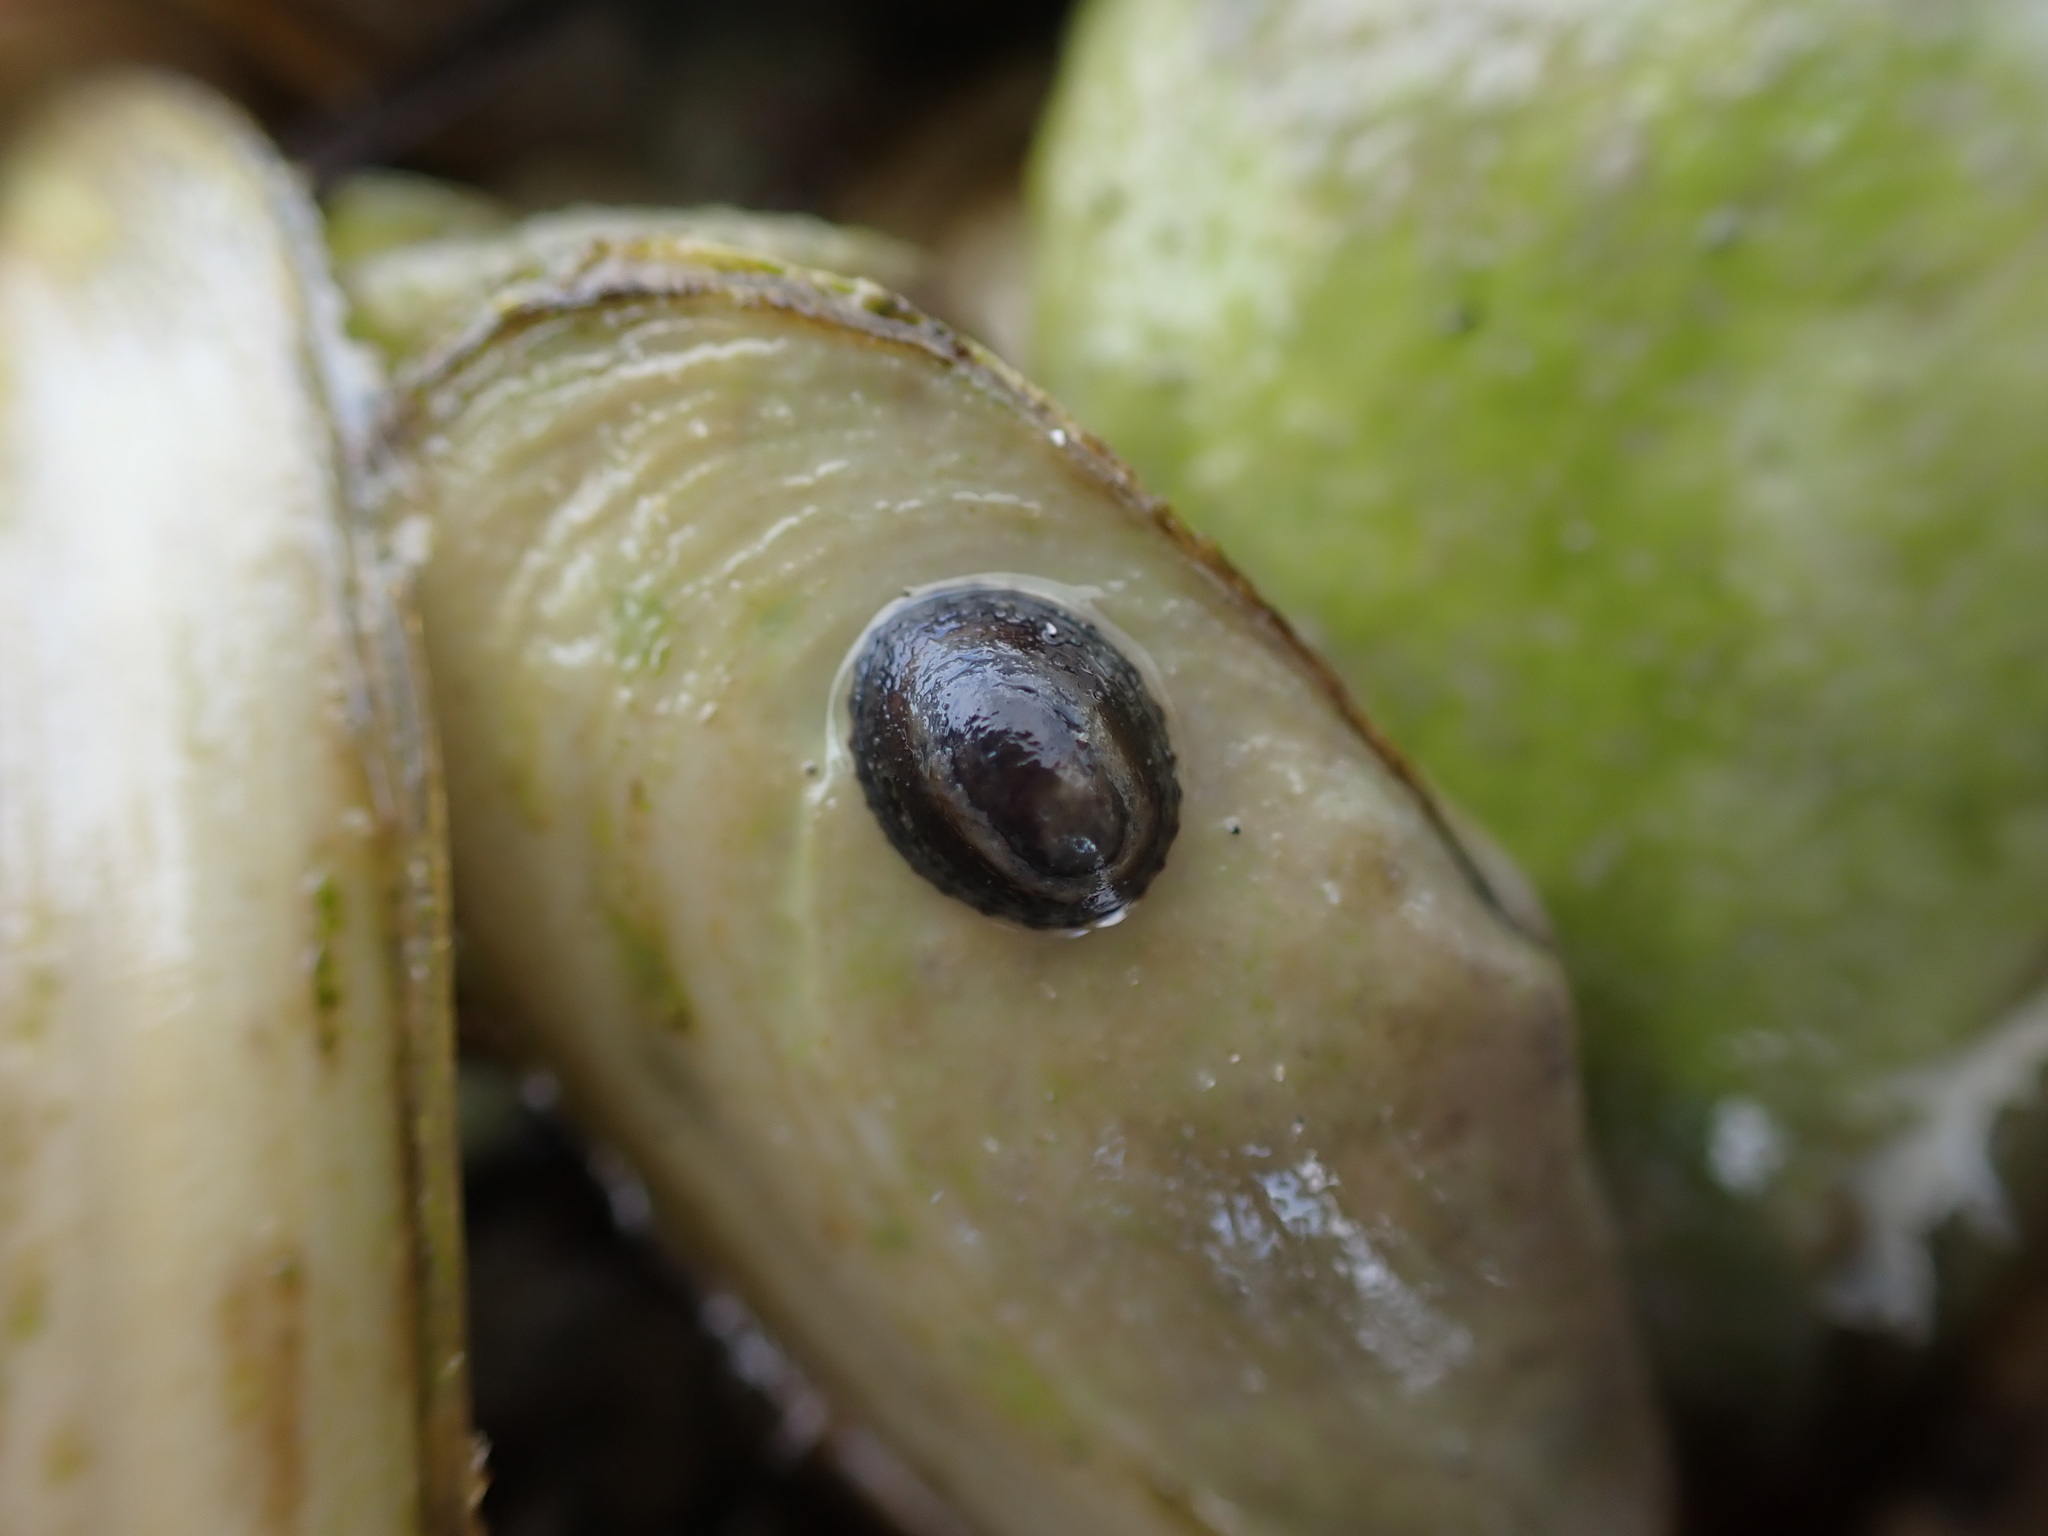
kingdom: Animalia
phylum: Mollusca
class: Gastropoda
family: Lottiidae
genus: Notoacmea
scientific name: Notoacmea scapha
